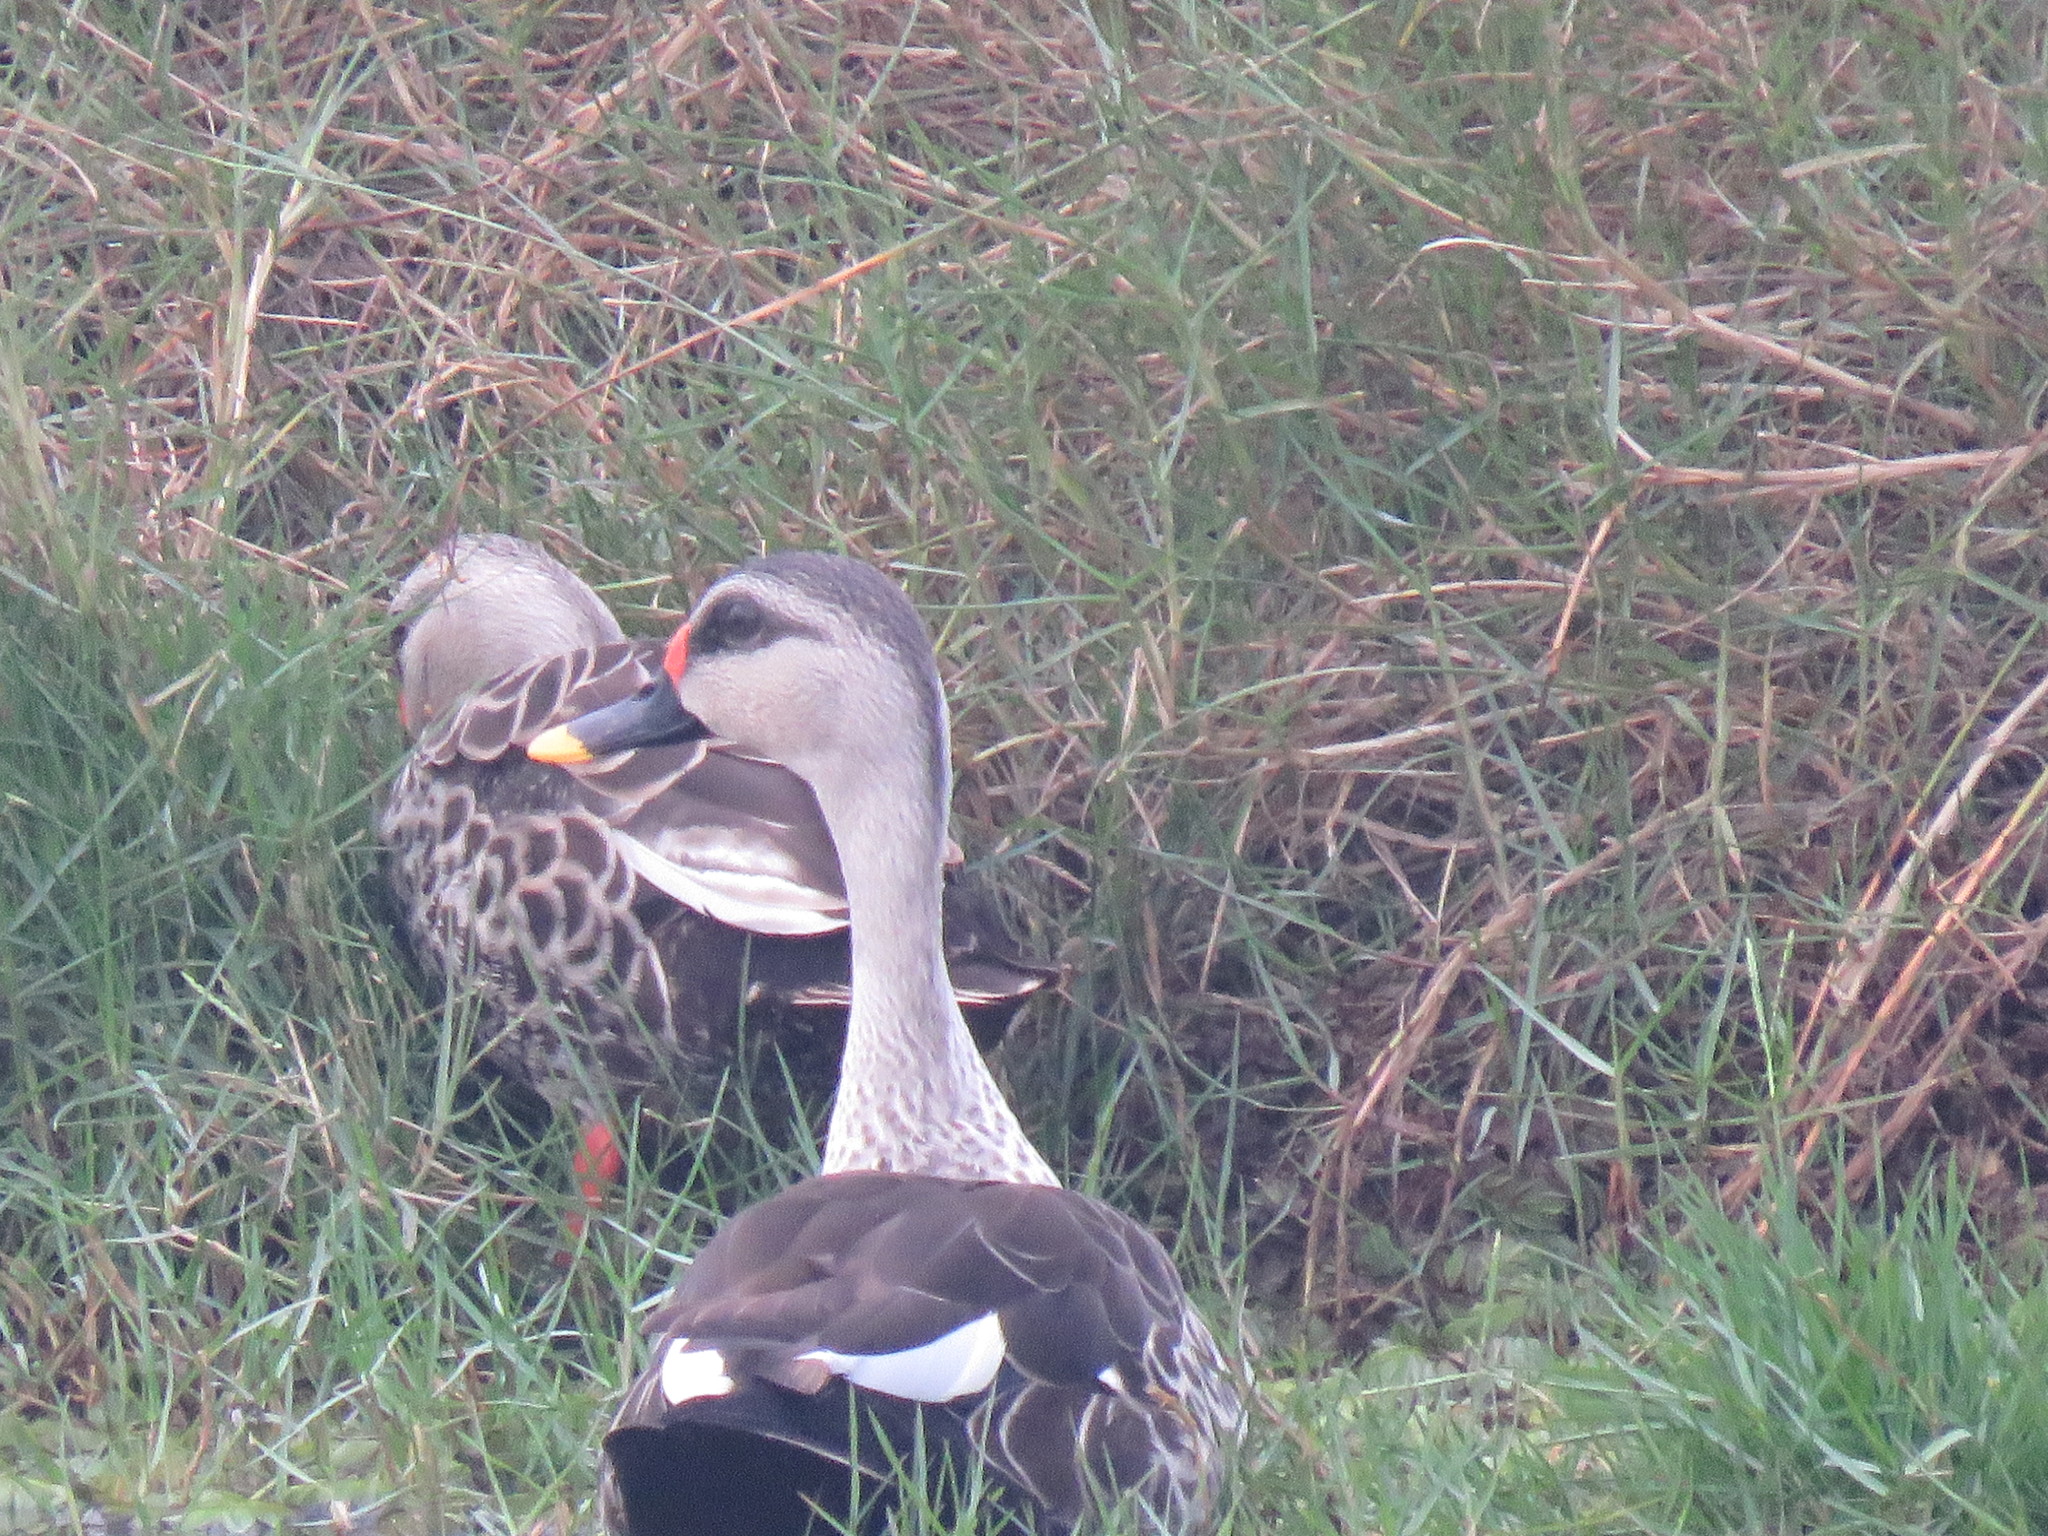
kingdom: Animalia
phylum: Chordata
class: Aves
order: Anseriformes
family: Anatidae
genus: Anas
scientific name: Anas poecilorhyncha
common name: Indian spot-billed duck
